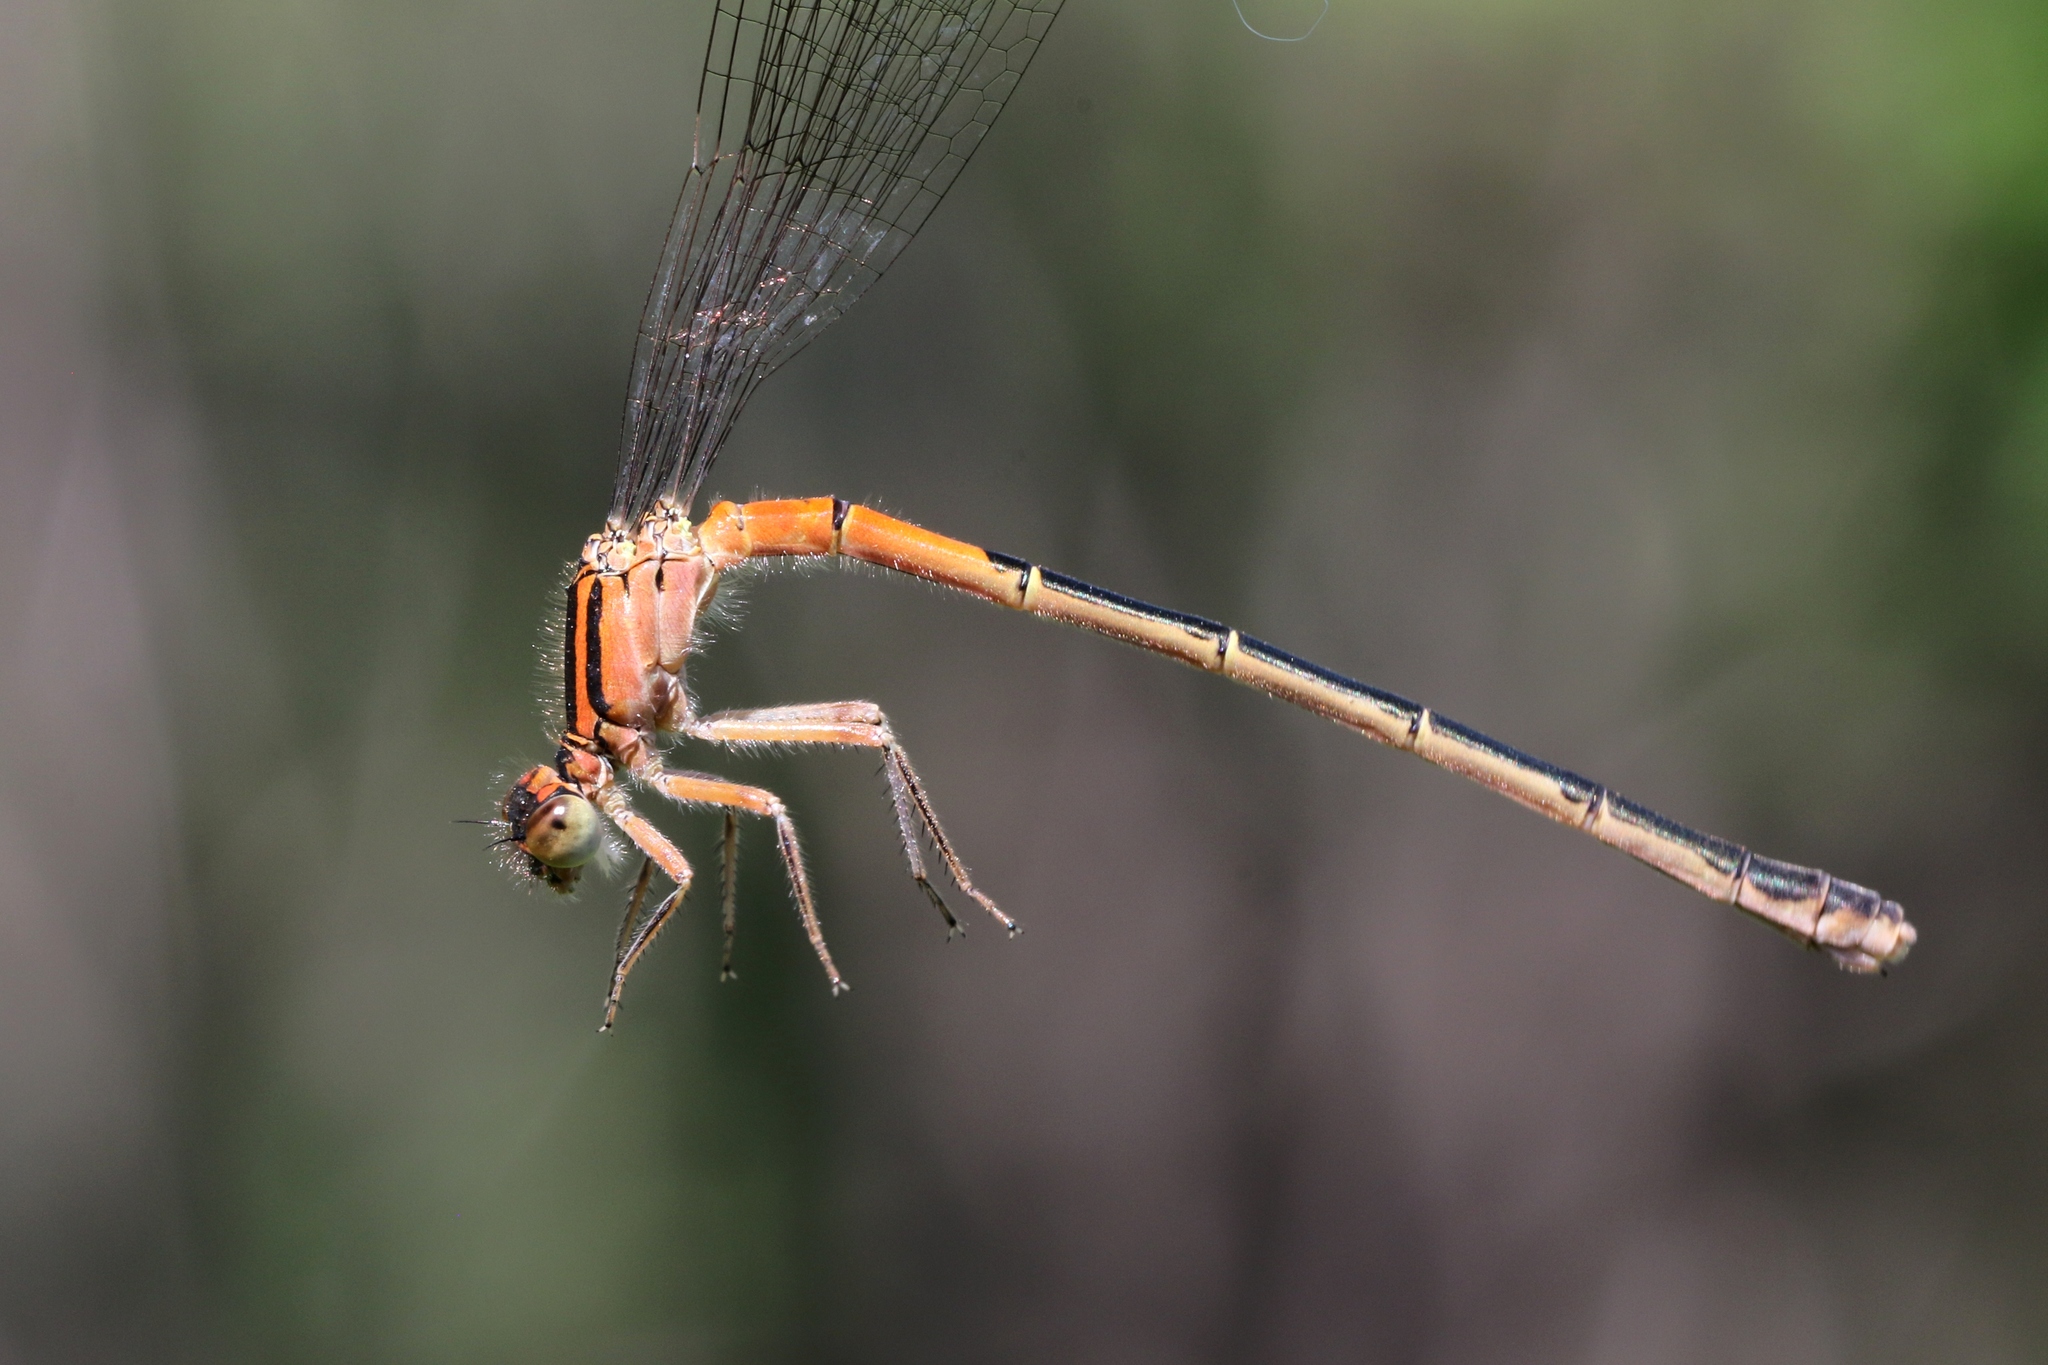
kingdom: Animalia
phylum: Arthropoda
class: Insecta
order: Odonata
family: Coenagrionidae
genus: Ischnura
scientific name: Ischnura verticalis
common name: Eastern forktail
